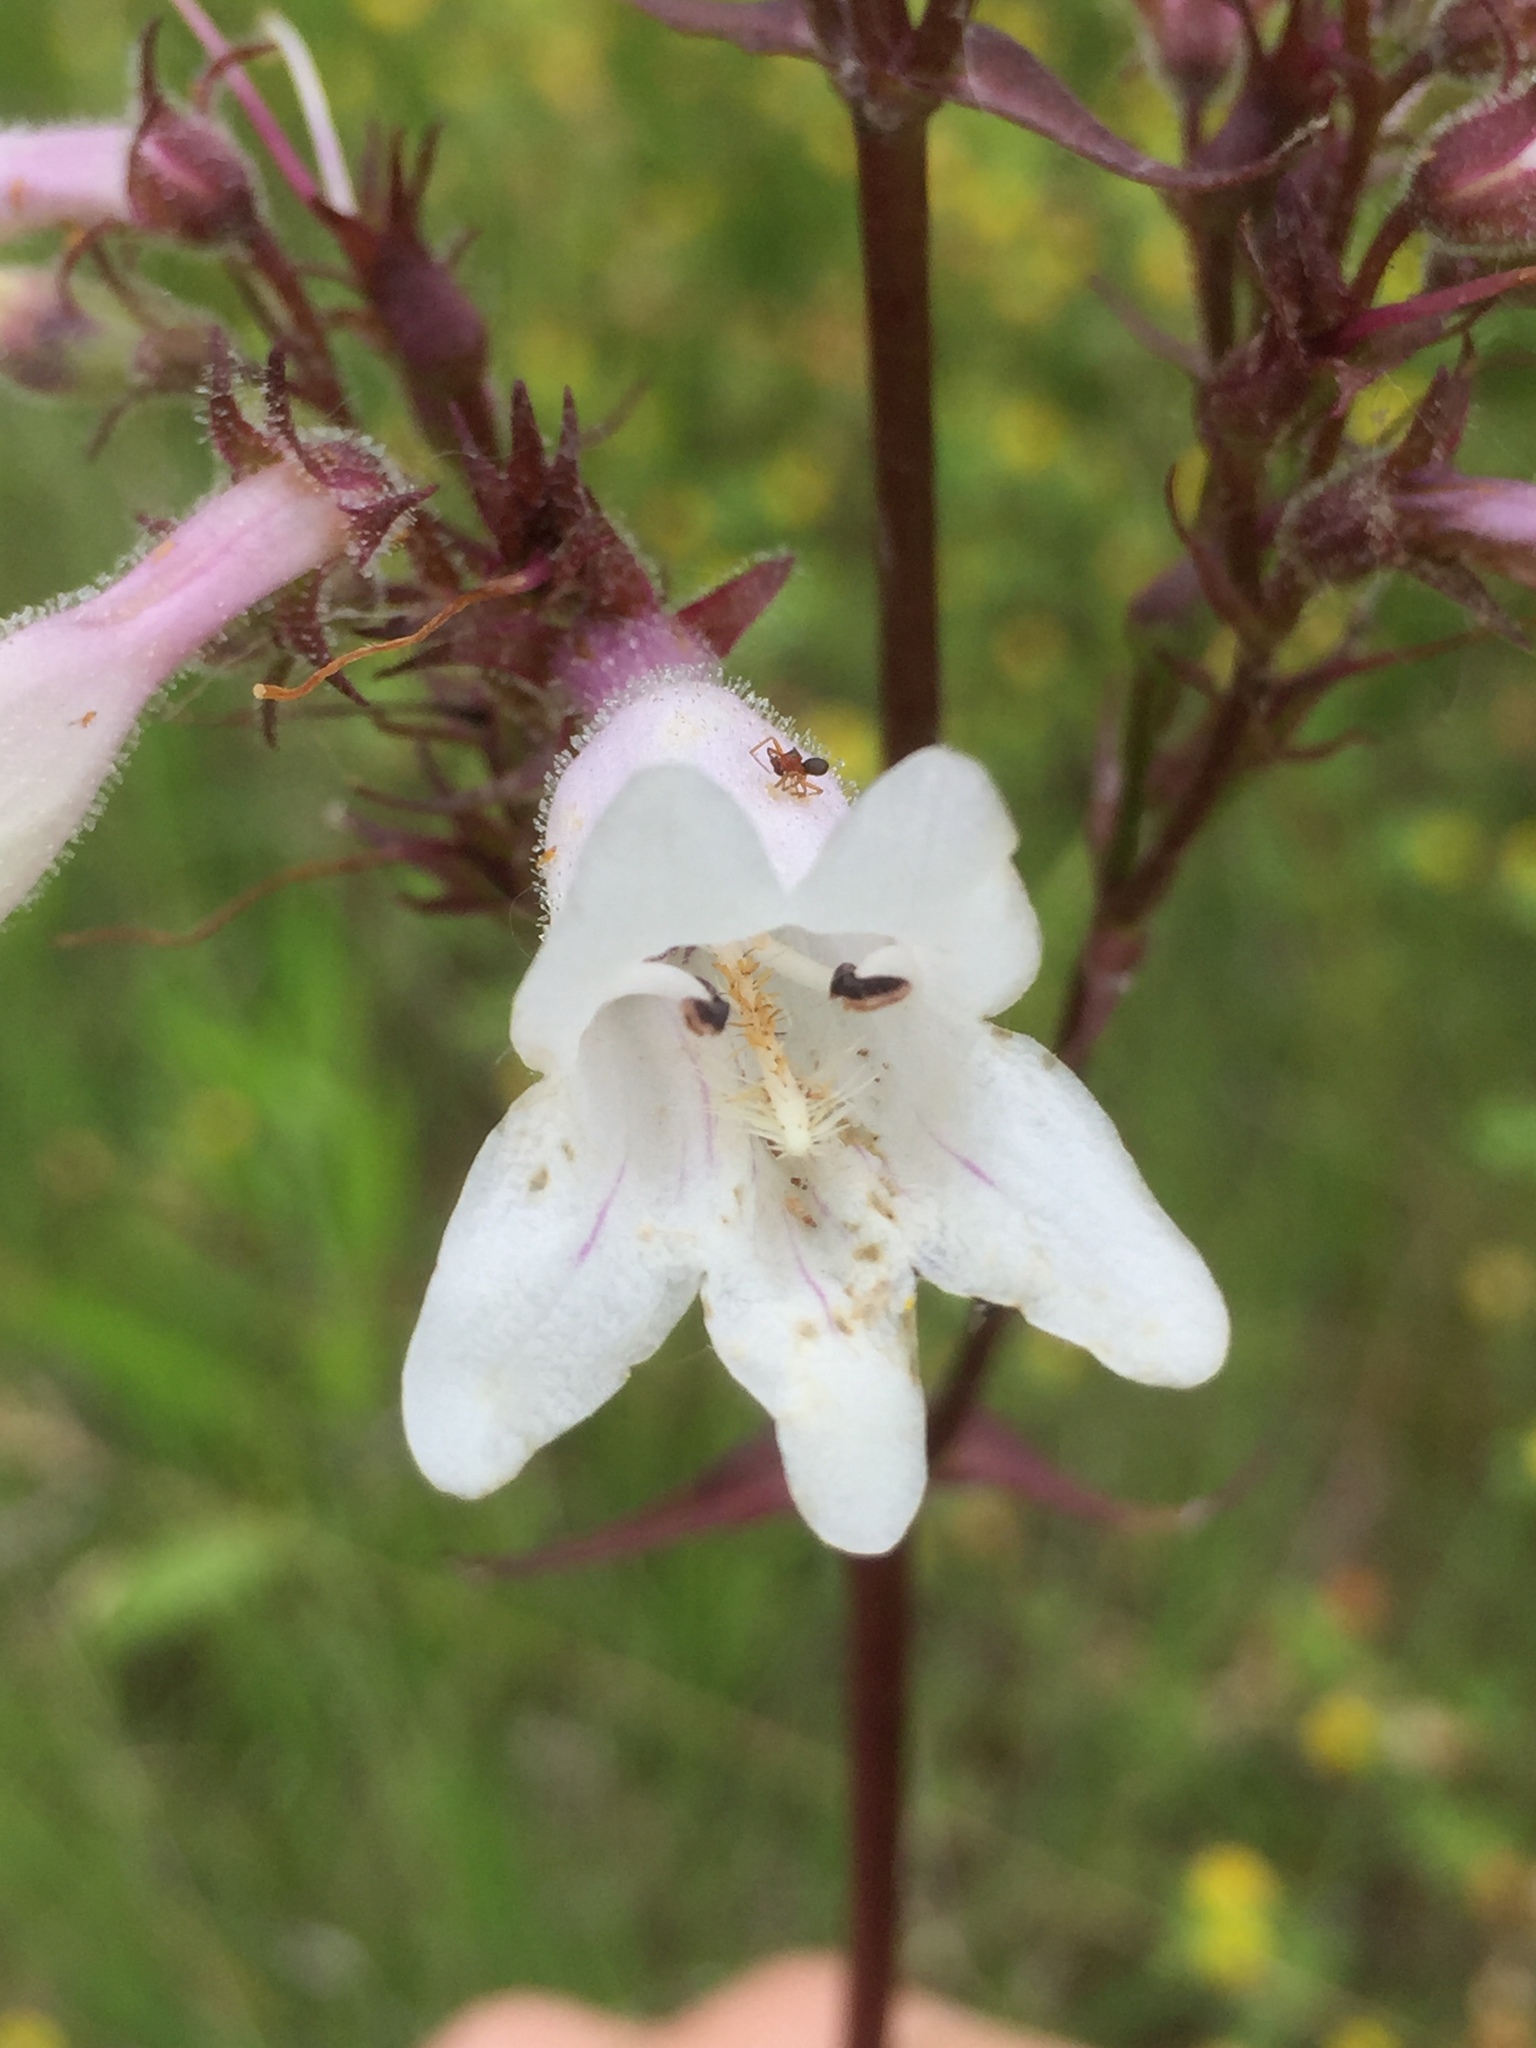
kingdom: Plantae
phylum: Tracheophyta
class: Magnoliopsida
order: Lamiales
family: Plantaginaceae
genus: Penstemon
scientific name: Penstemon digitalis
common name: Foxglove beardtongue
